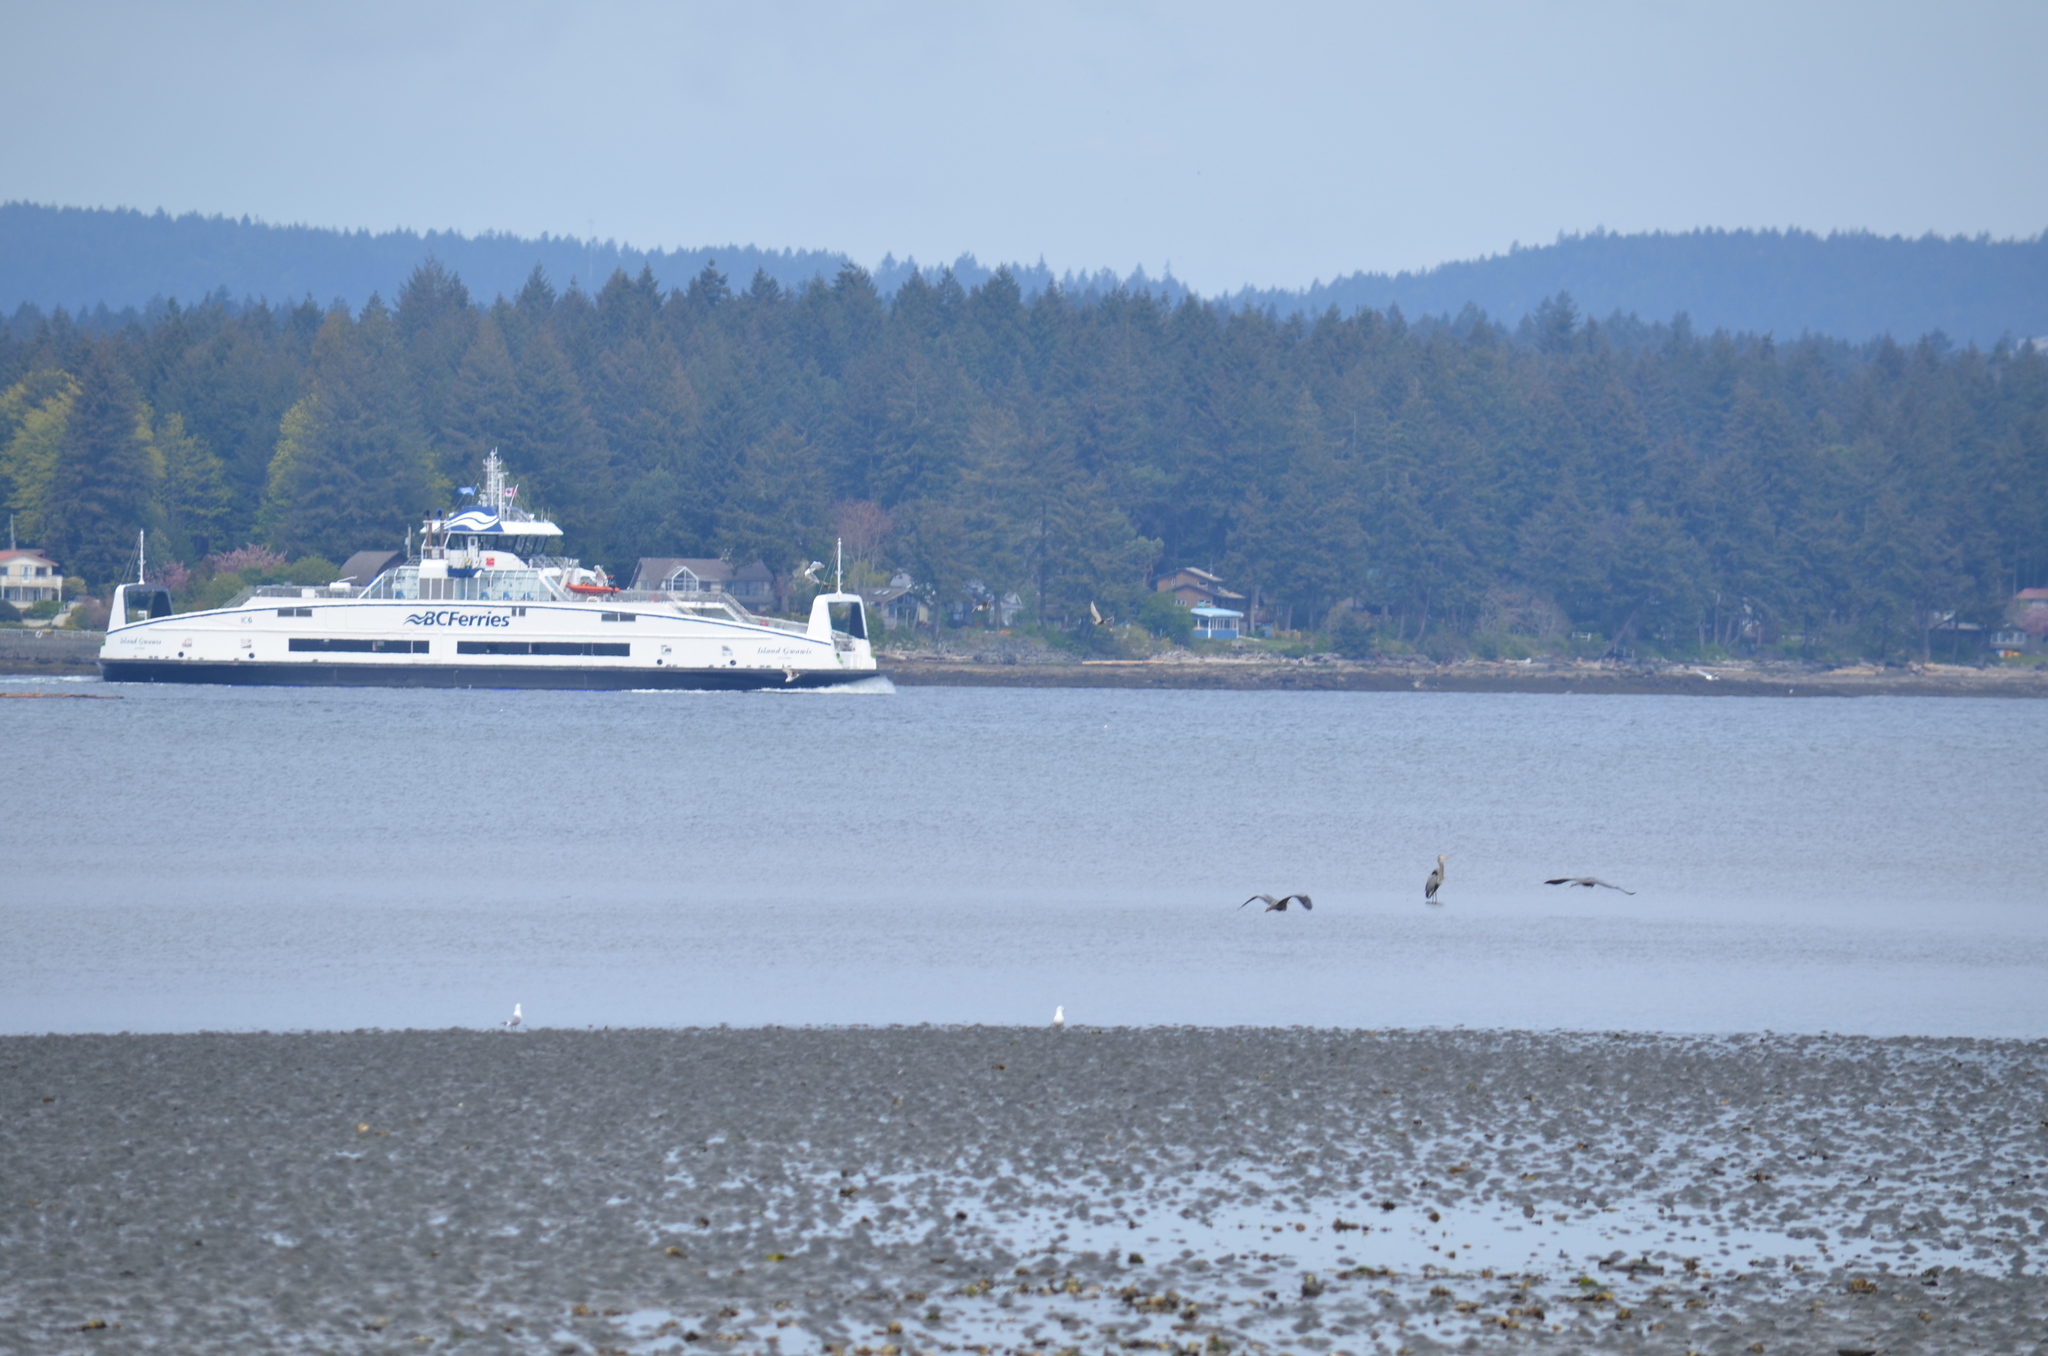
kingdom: Animalia
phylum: Chordata
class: Aves
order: Pelecaniformes
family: Ardeidae
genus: Ardea
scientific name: Ardea herodias
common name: Great blue heron
